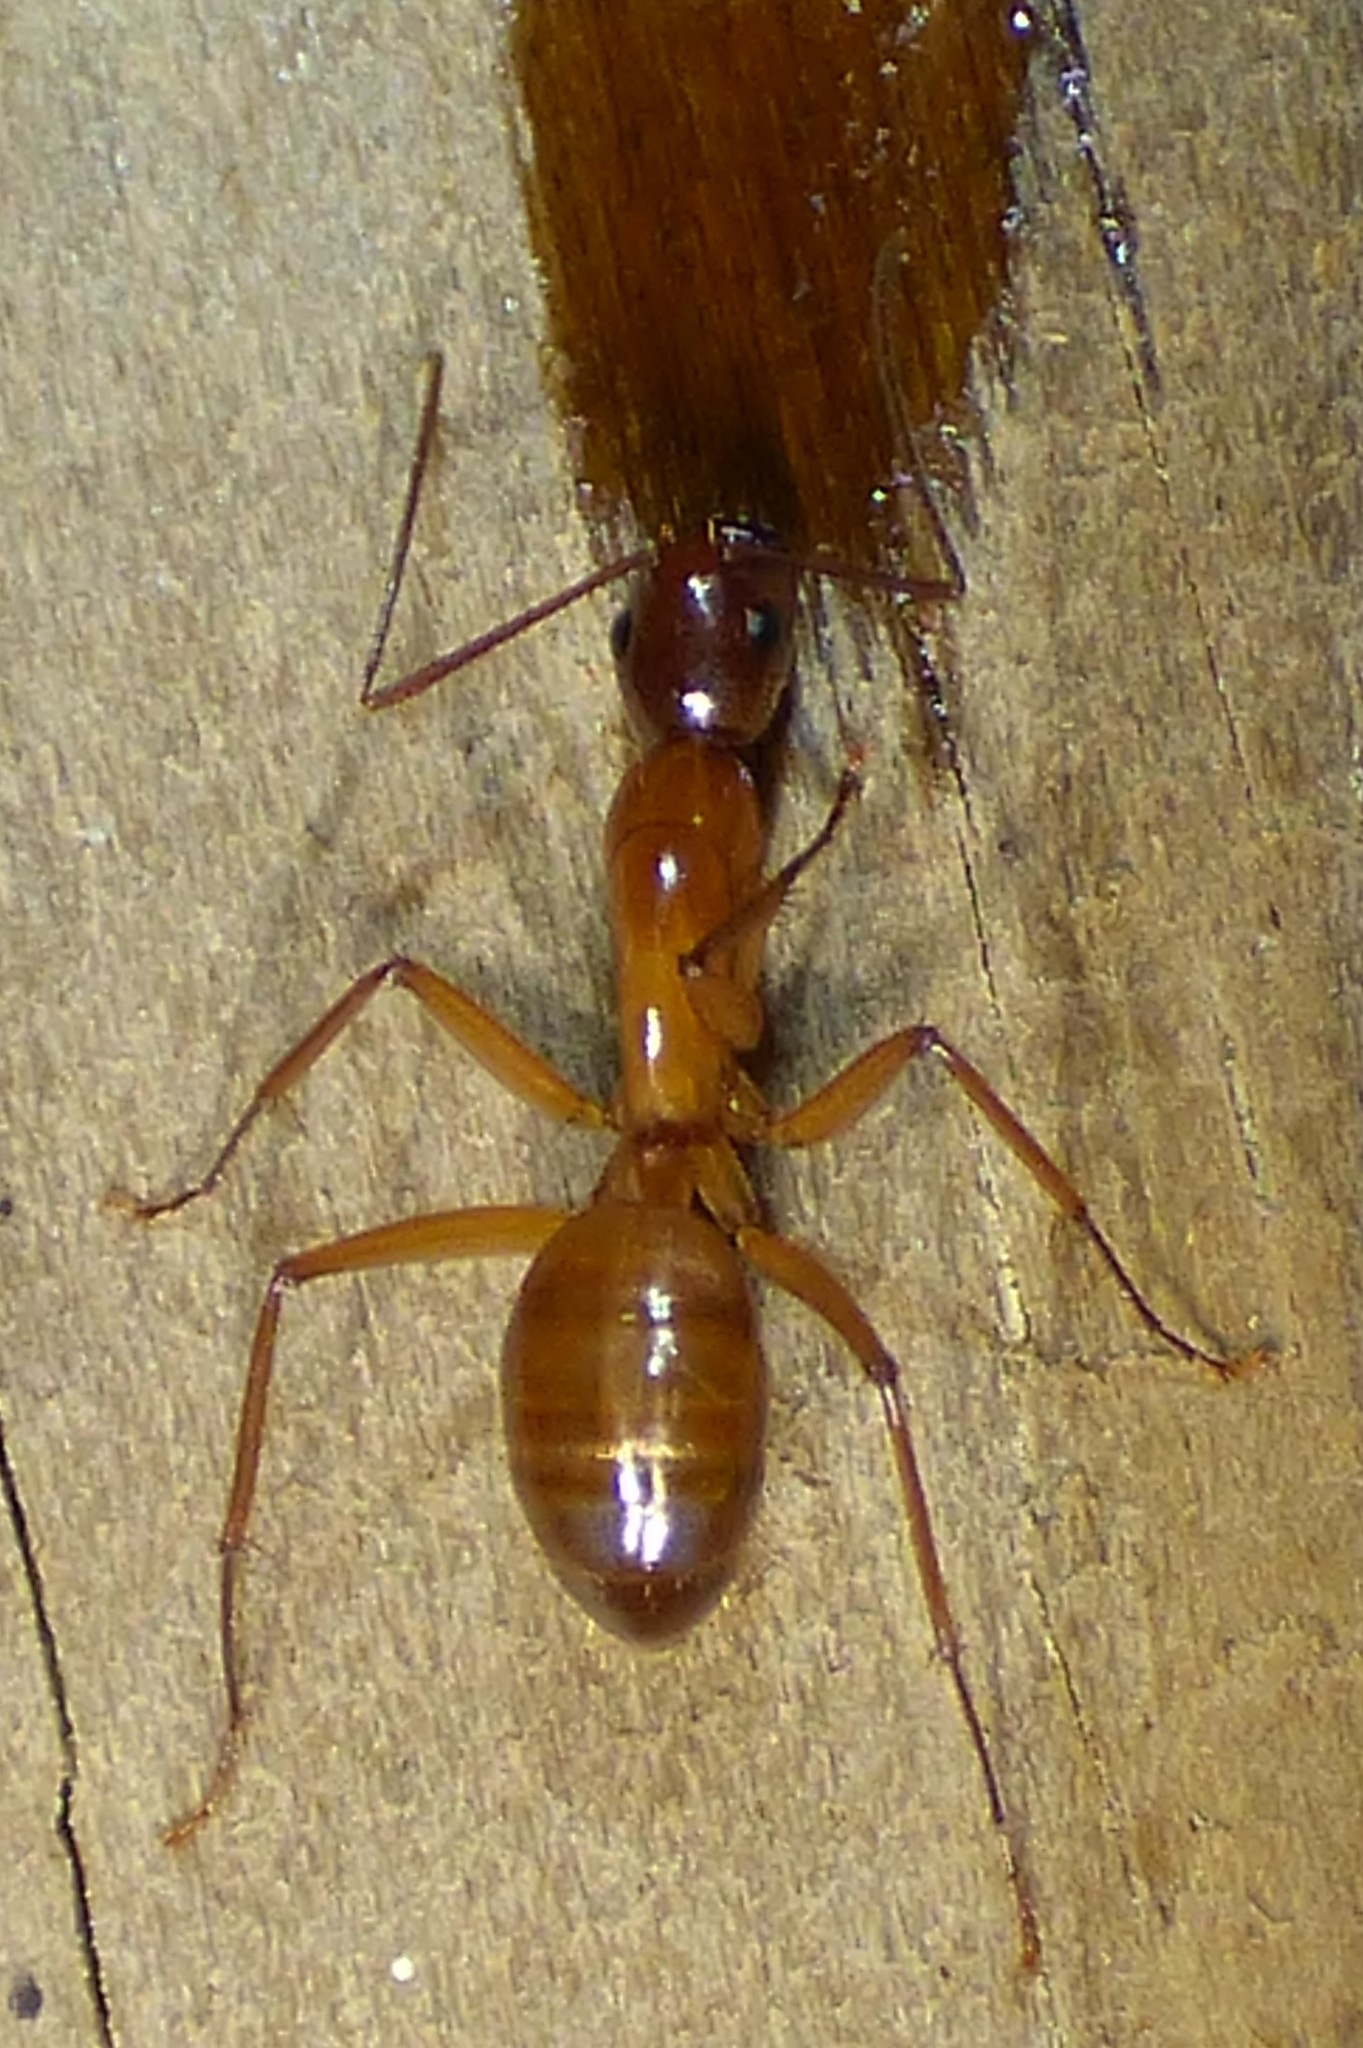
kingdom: Animalia
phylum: Arthropoda
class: Insecta
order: Hymenoptera
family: Formicidae
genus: Camponotus
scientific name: Camponotus castaneus
